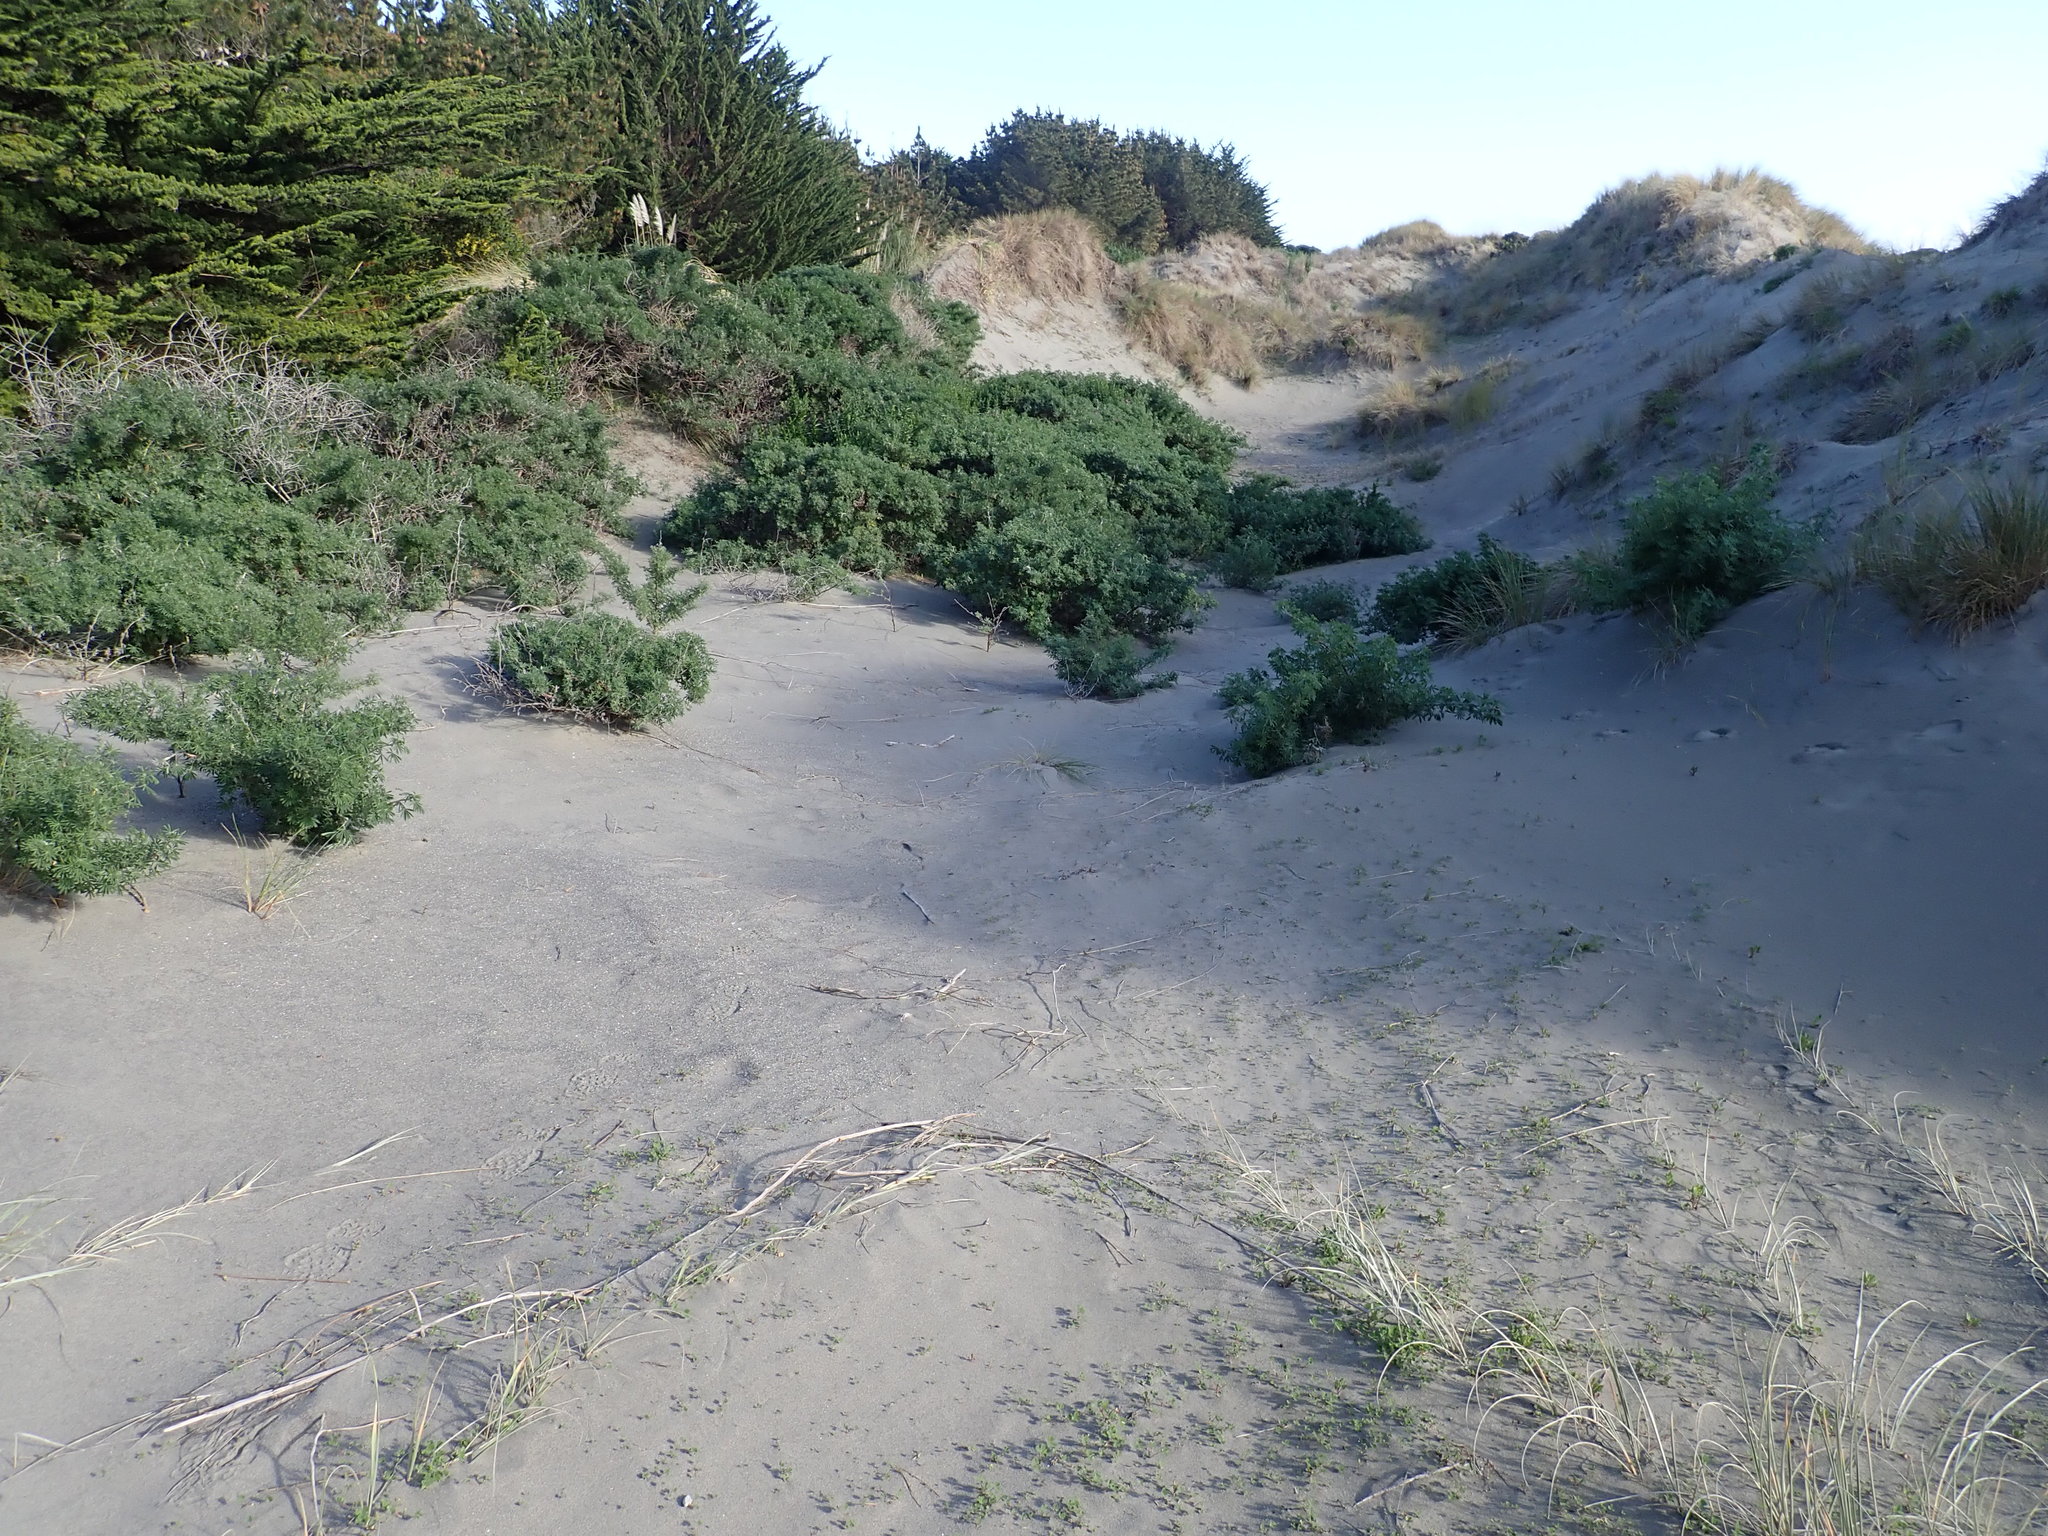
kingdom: Plantae
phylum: Tracheophyta
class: Magnoliopsida
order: Fabales
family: Fabaceae
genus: Lupinus
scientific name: Lupinus arboreus
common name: Yellow bush lupine
